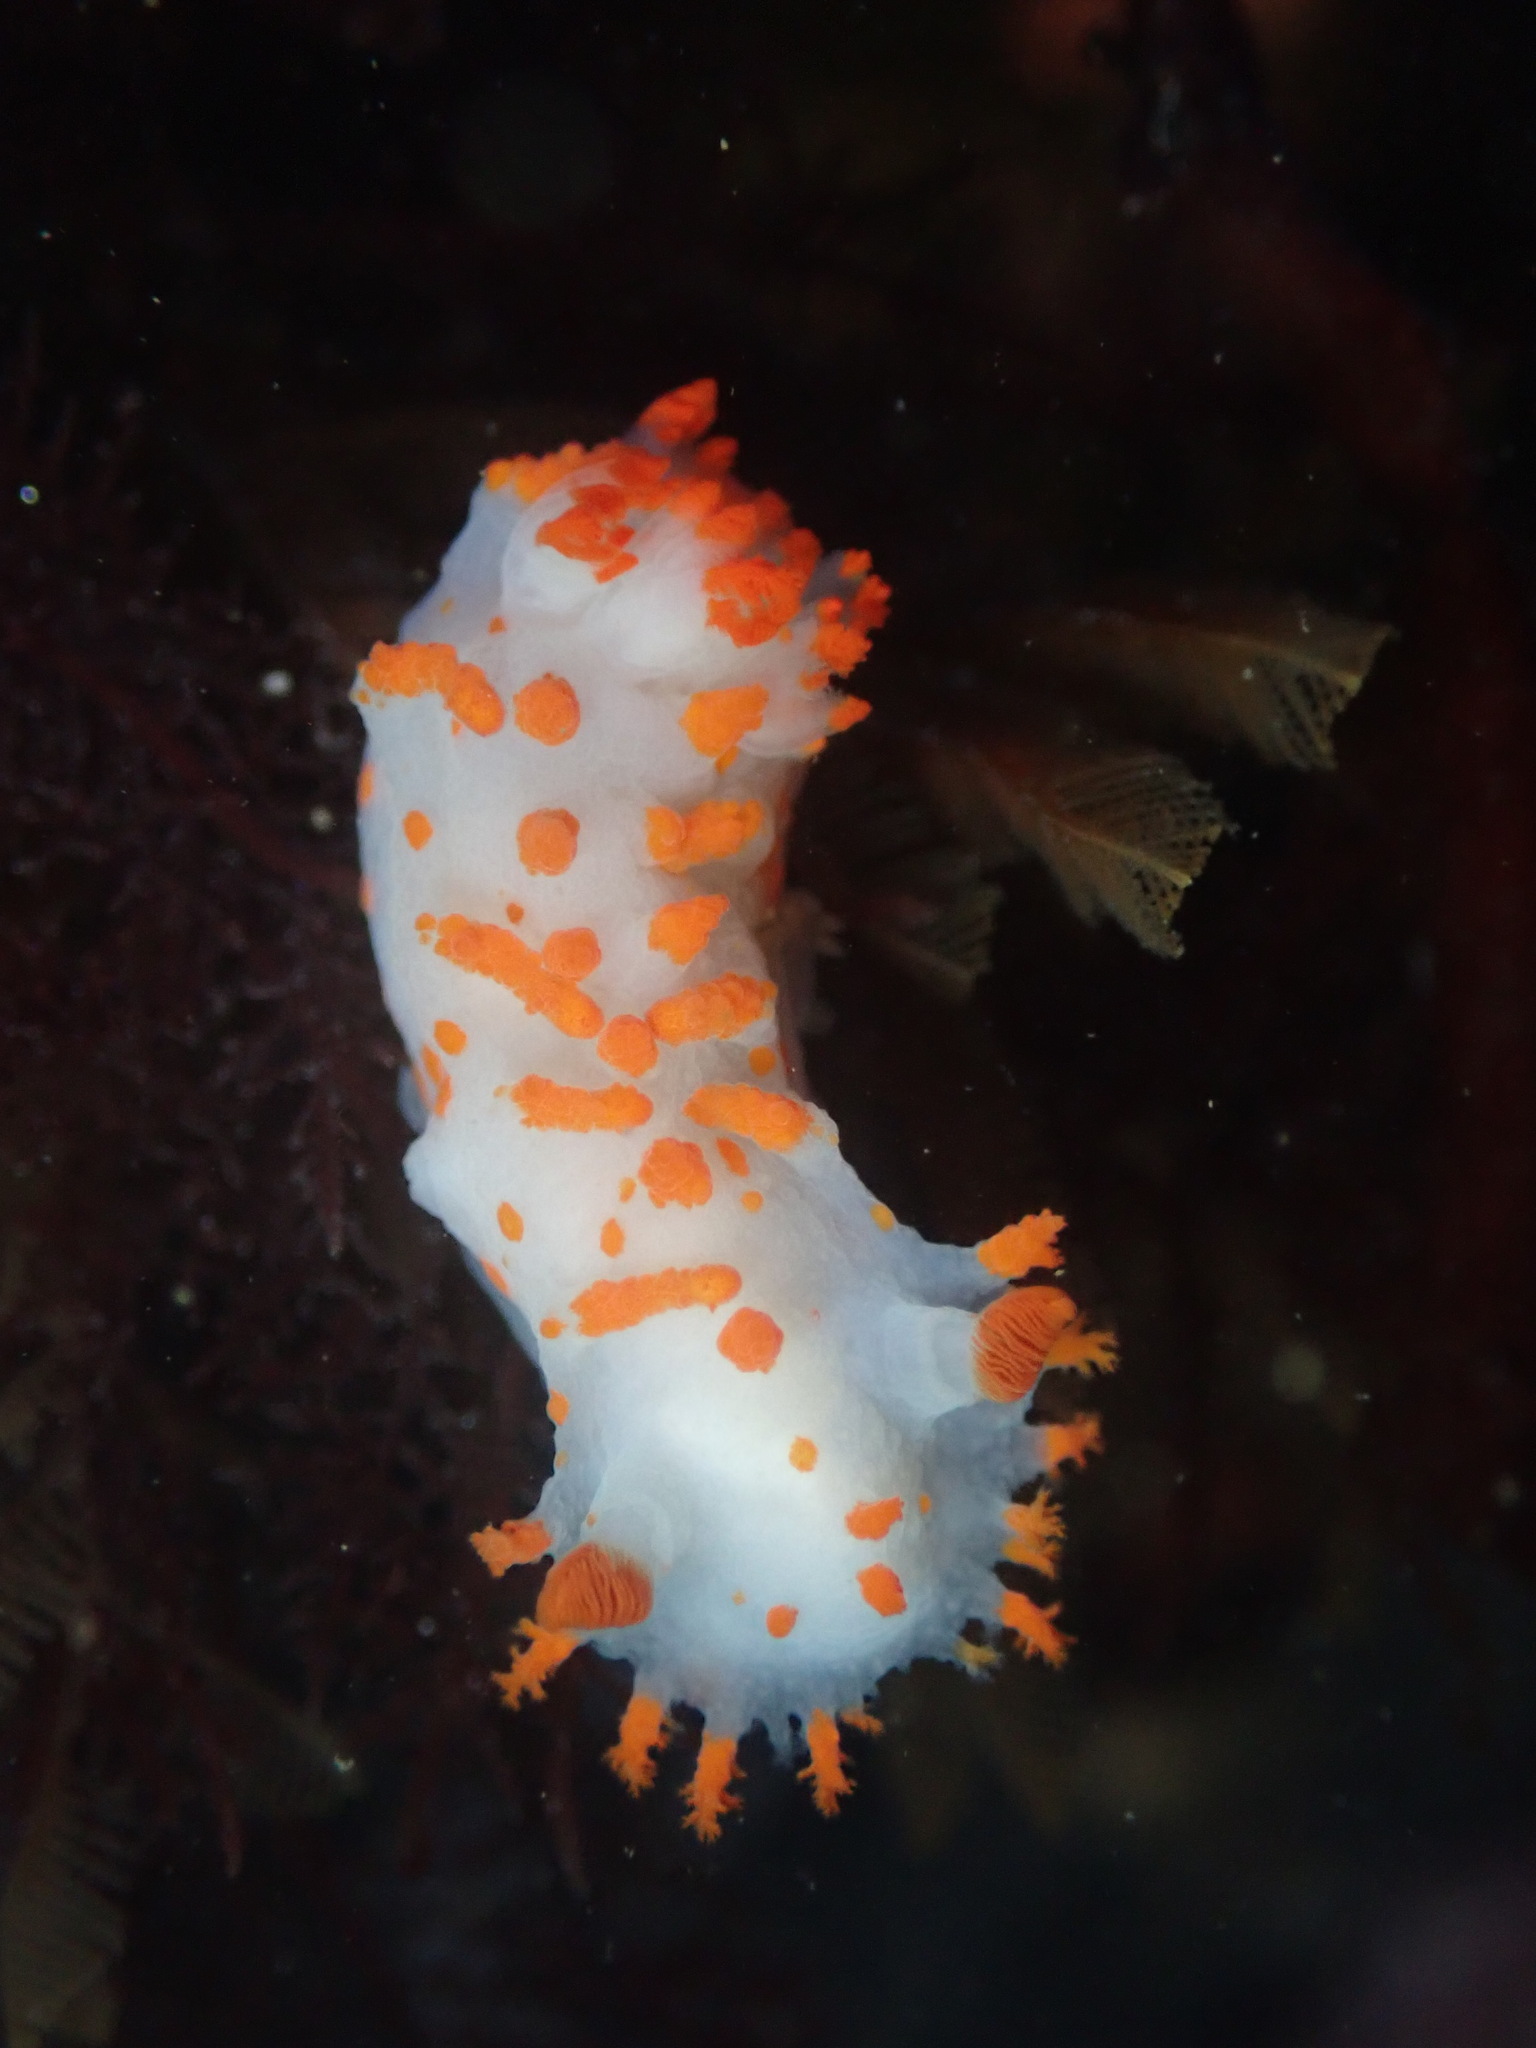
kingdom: Animalia
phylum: Mollusca
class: Gastropoda
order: Nudibranchia
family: Polyceridae
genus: Triopha
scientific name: Triopha catalinae
